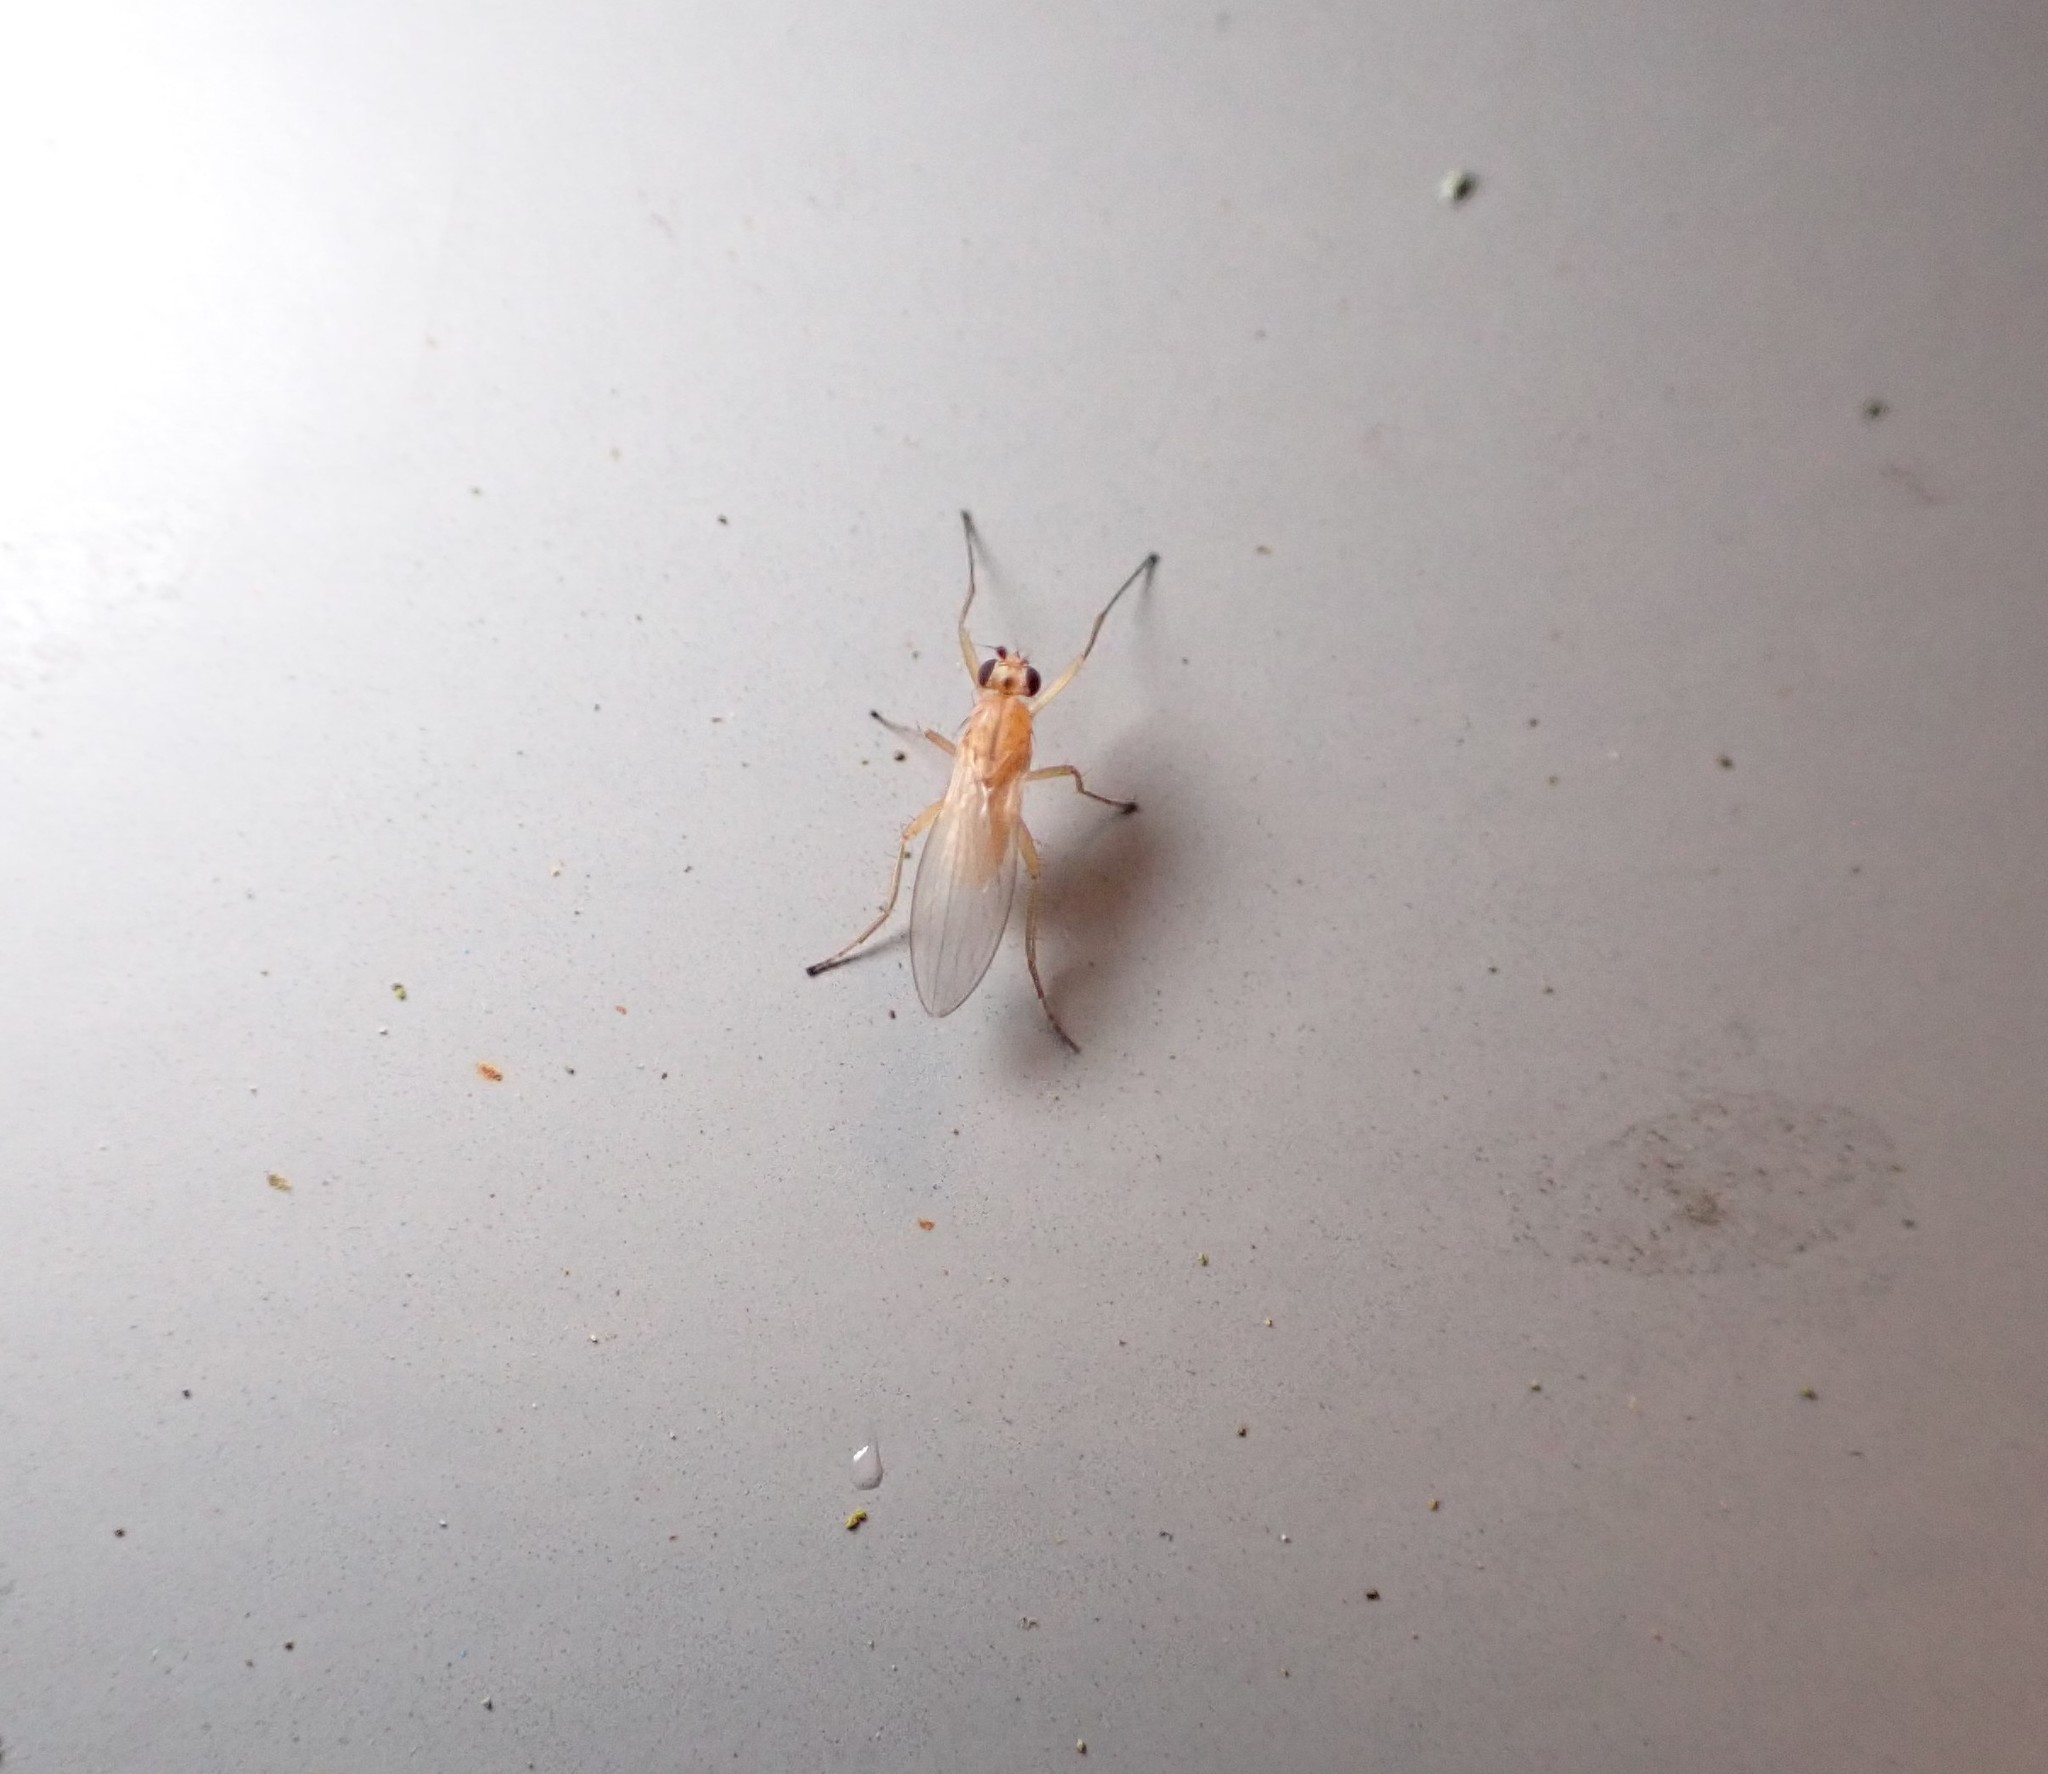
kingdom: Animalia
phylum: Arthropoda
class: Insecta
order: Diptera
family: Lonchopteridae
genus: Lonchoptera
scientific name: Lonchoptera bifurcata
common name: Spear-winged fly
